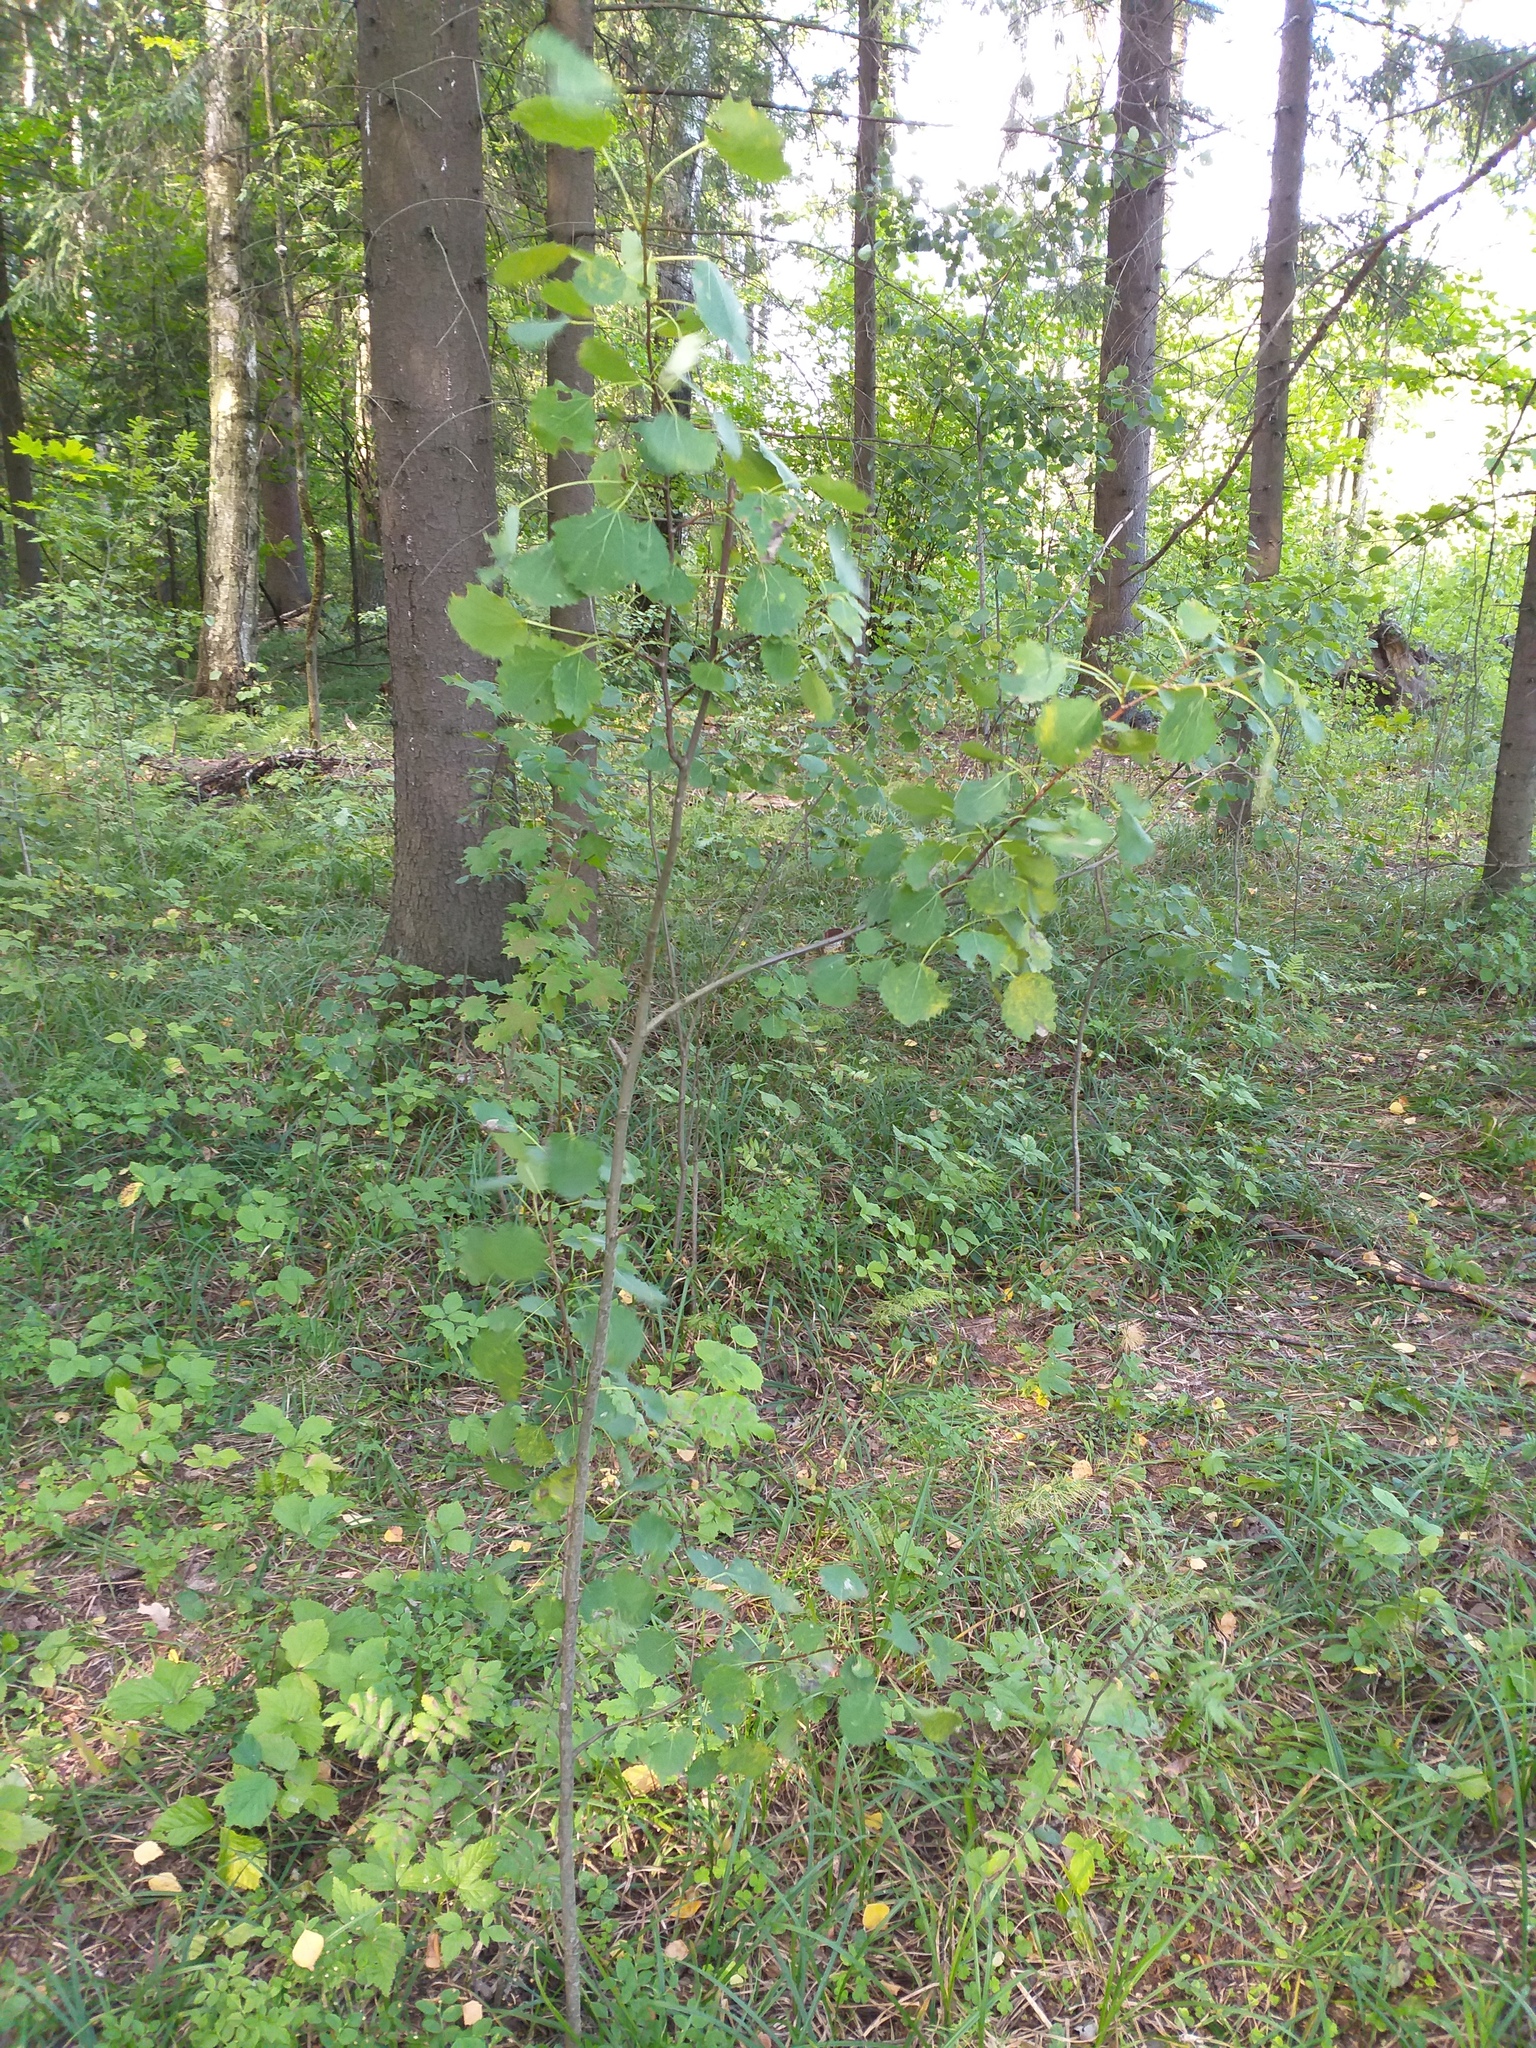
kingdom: Plantae
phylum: Tracheophyta
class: Magnoliopsida
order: Malpighiales
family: Salicaceae
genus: Populus
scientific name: Populus tremula
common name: European aspen
